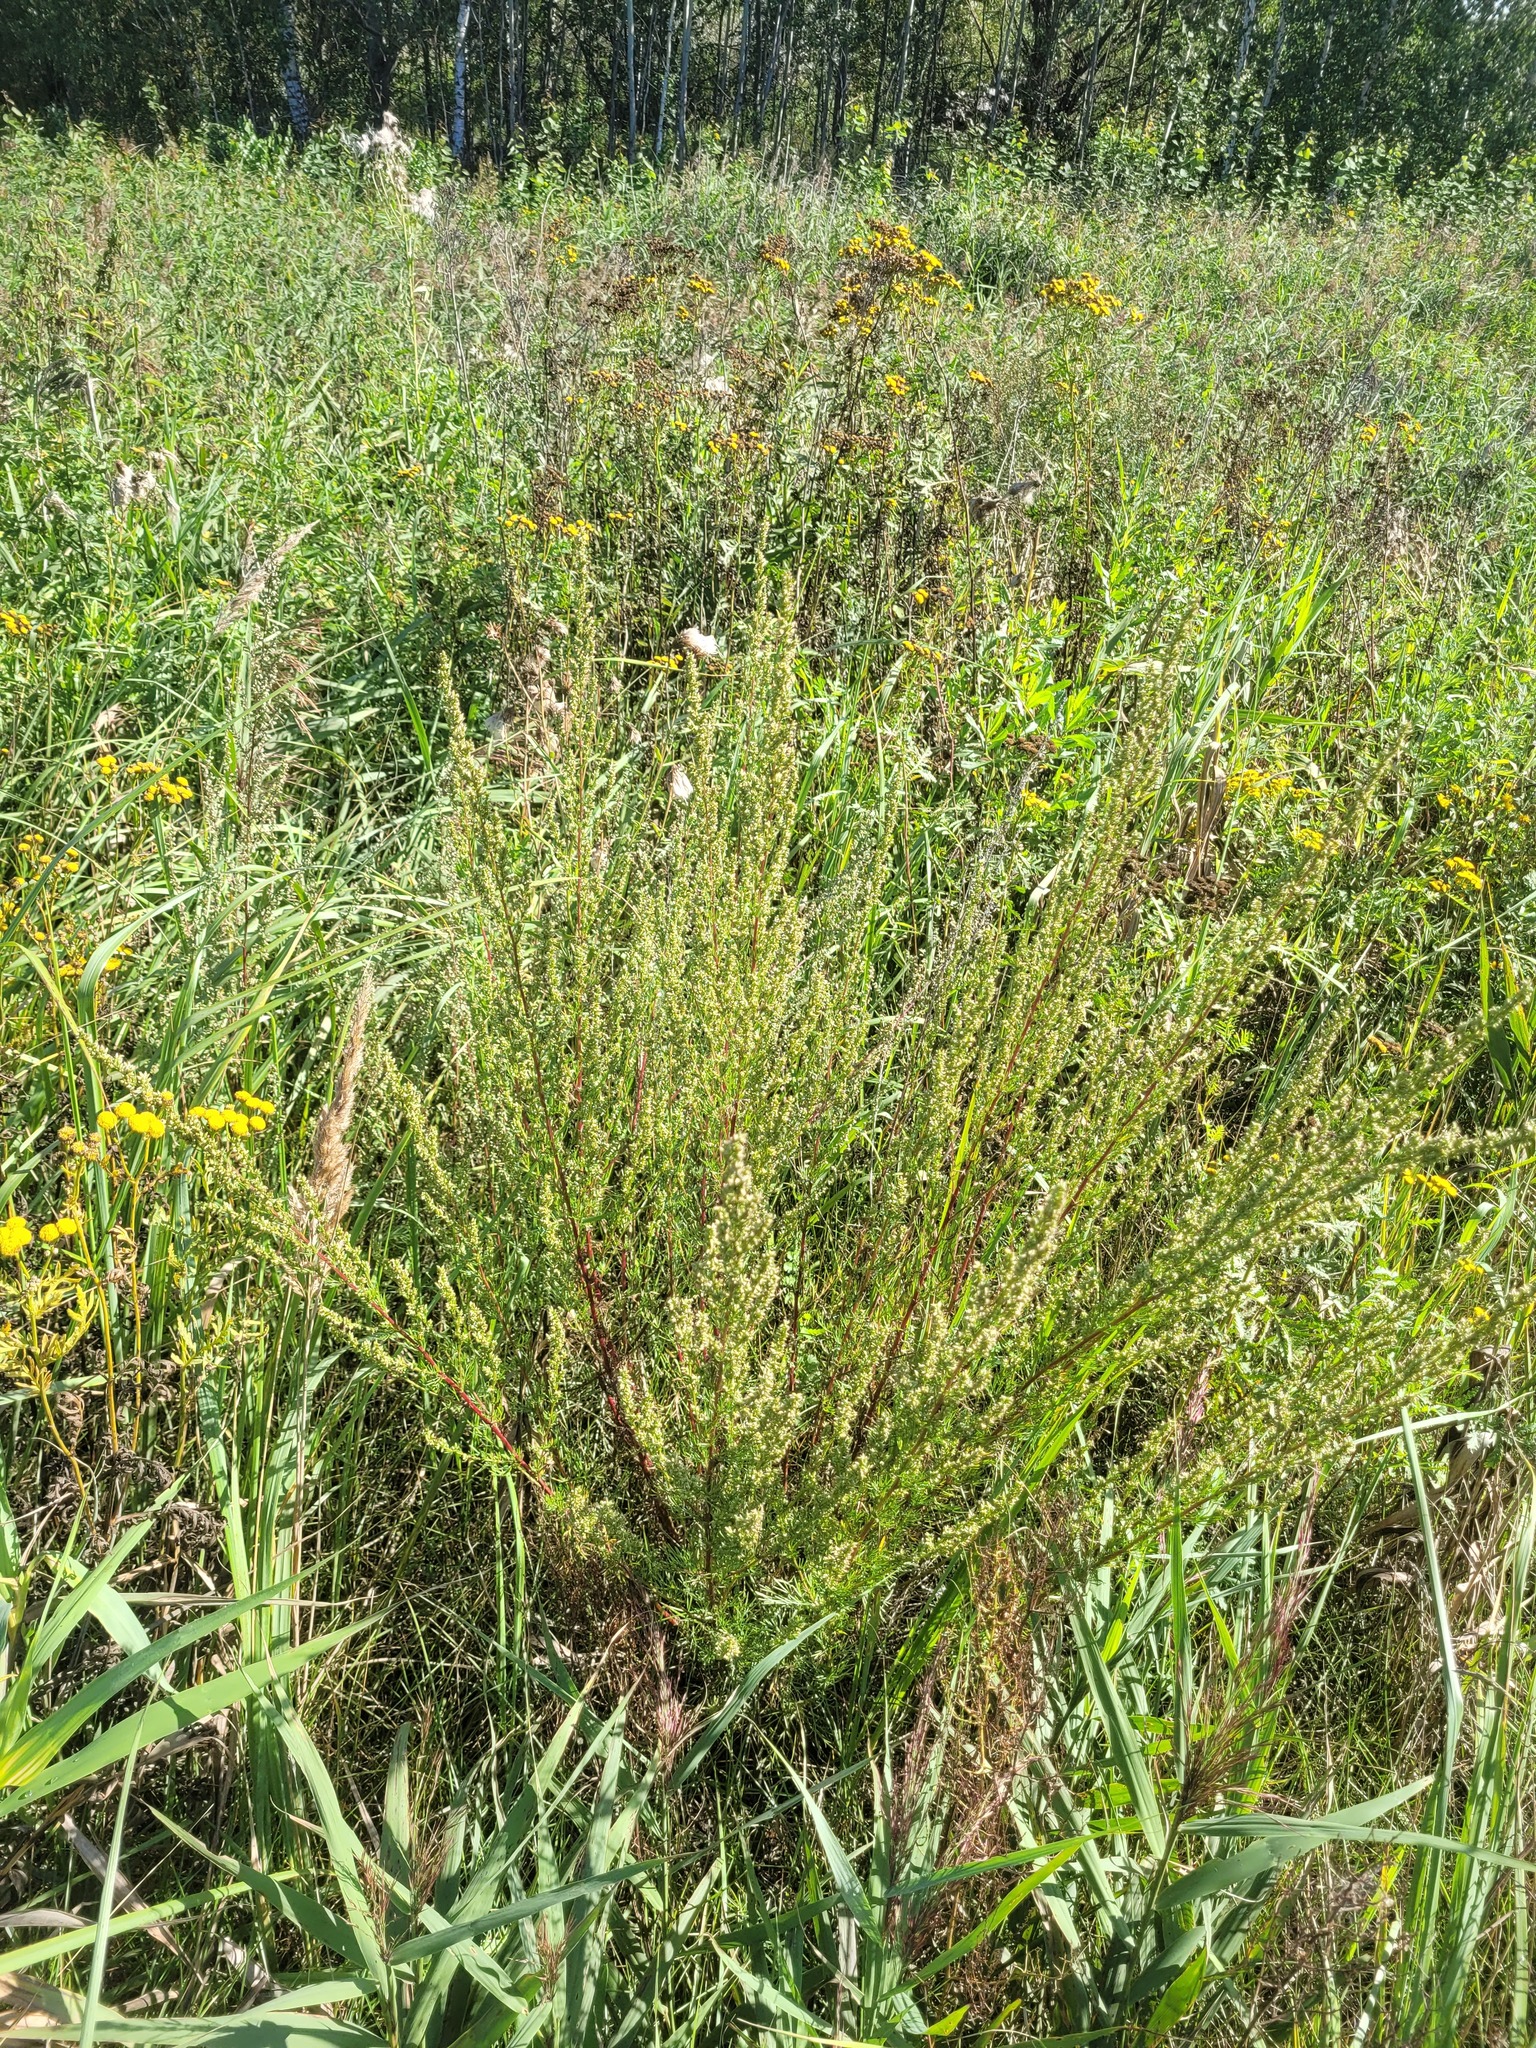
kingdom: Plantae
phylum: Tracheophyta
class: Magnoliopsida
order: Asterales
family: Asteraceae
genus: Artemisia
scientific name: Artemisia campestris
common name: Field wormwood
